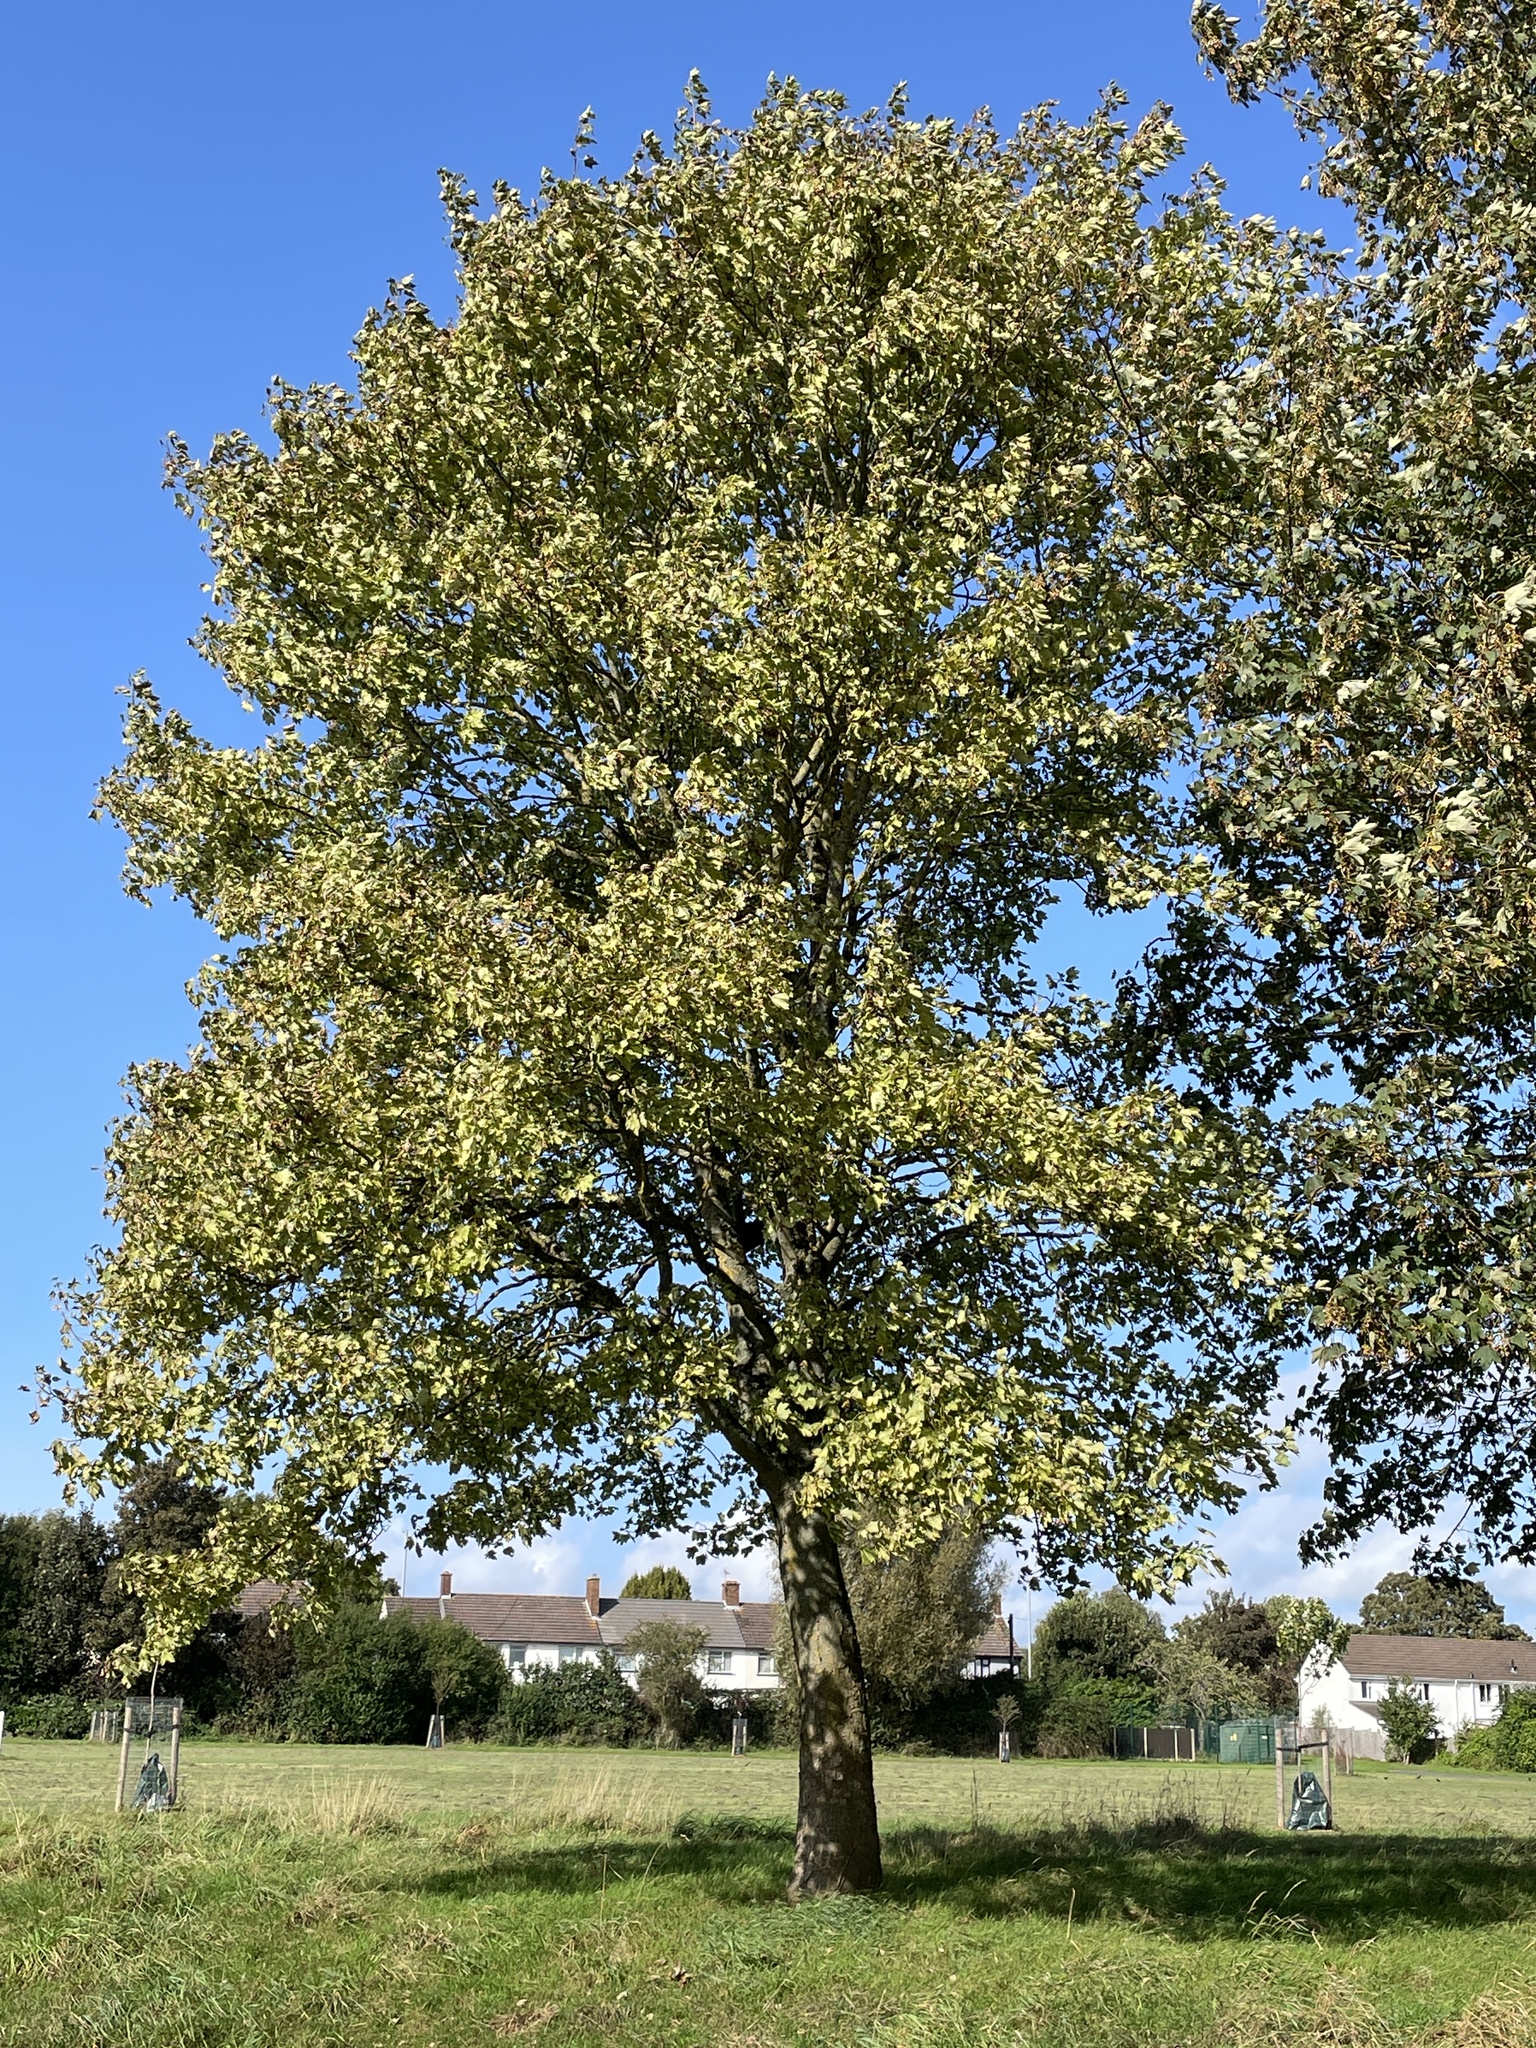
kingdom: Plantae
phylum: Tracheophyta
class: Magnoliopsida
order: Sapindales
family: Sapindaceae
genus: Acer
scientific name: Acer pseudoplatanus
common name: Sycamore
